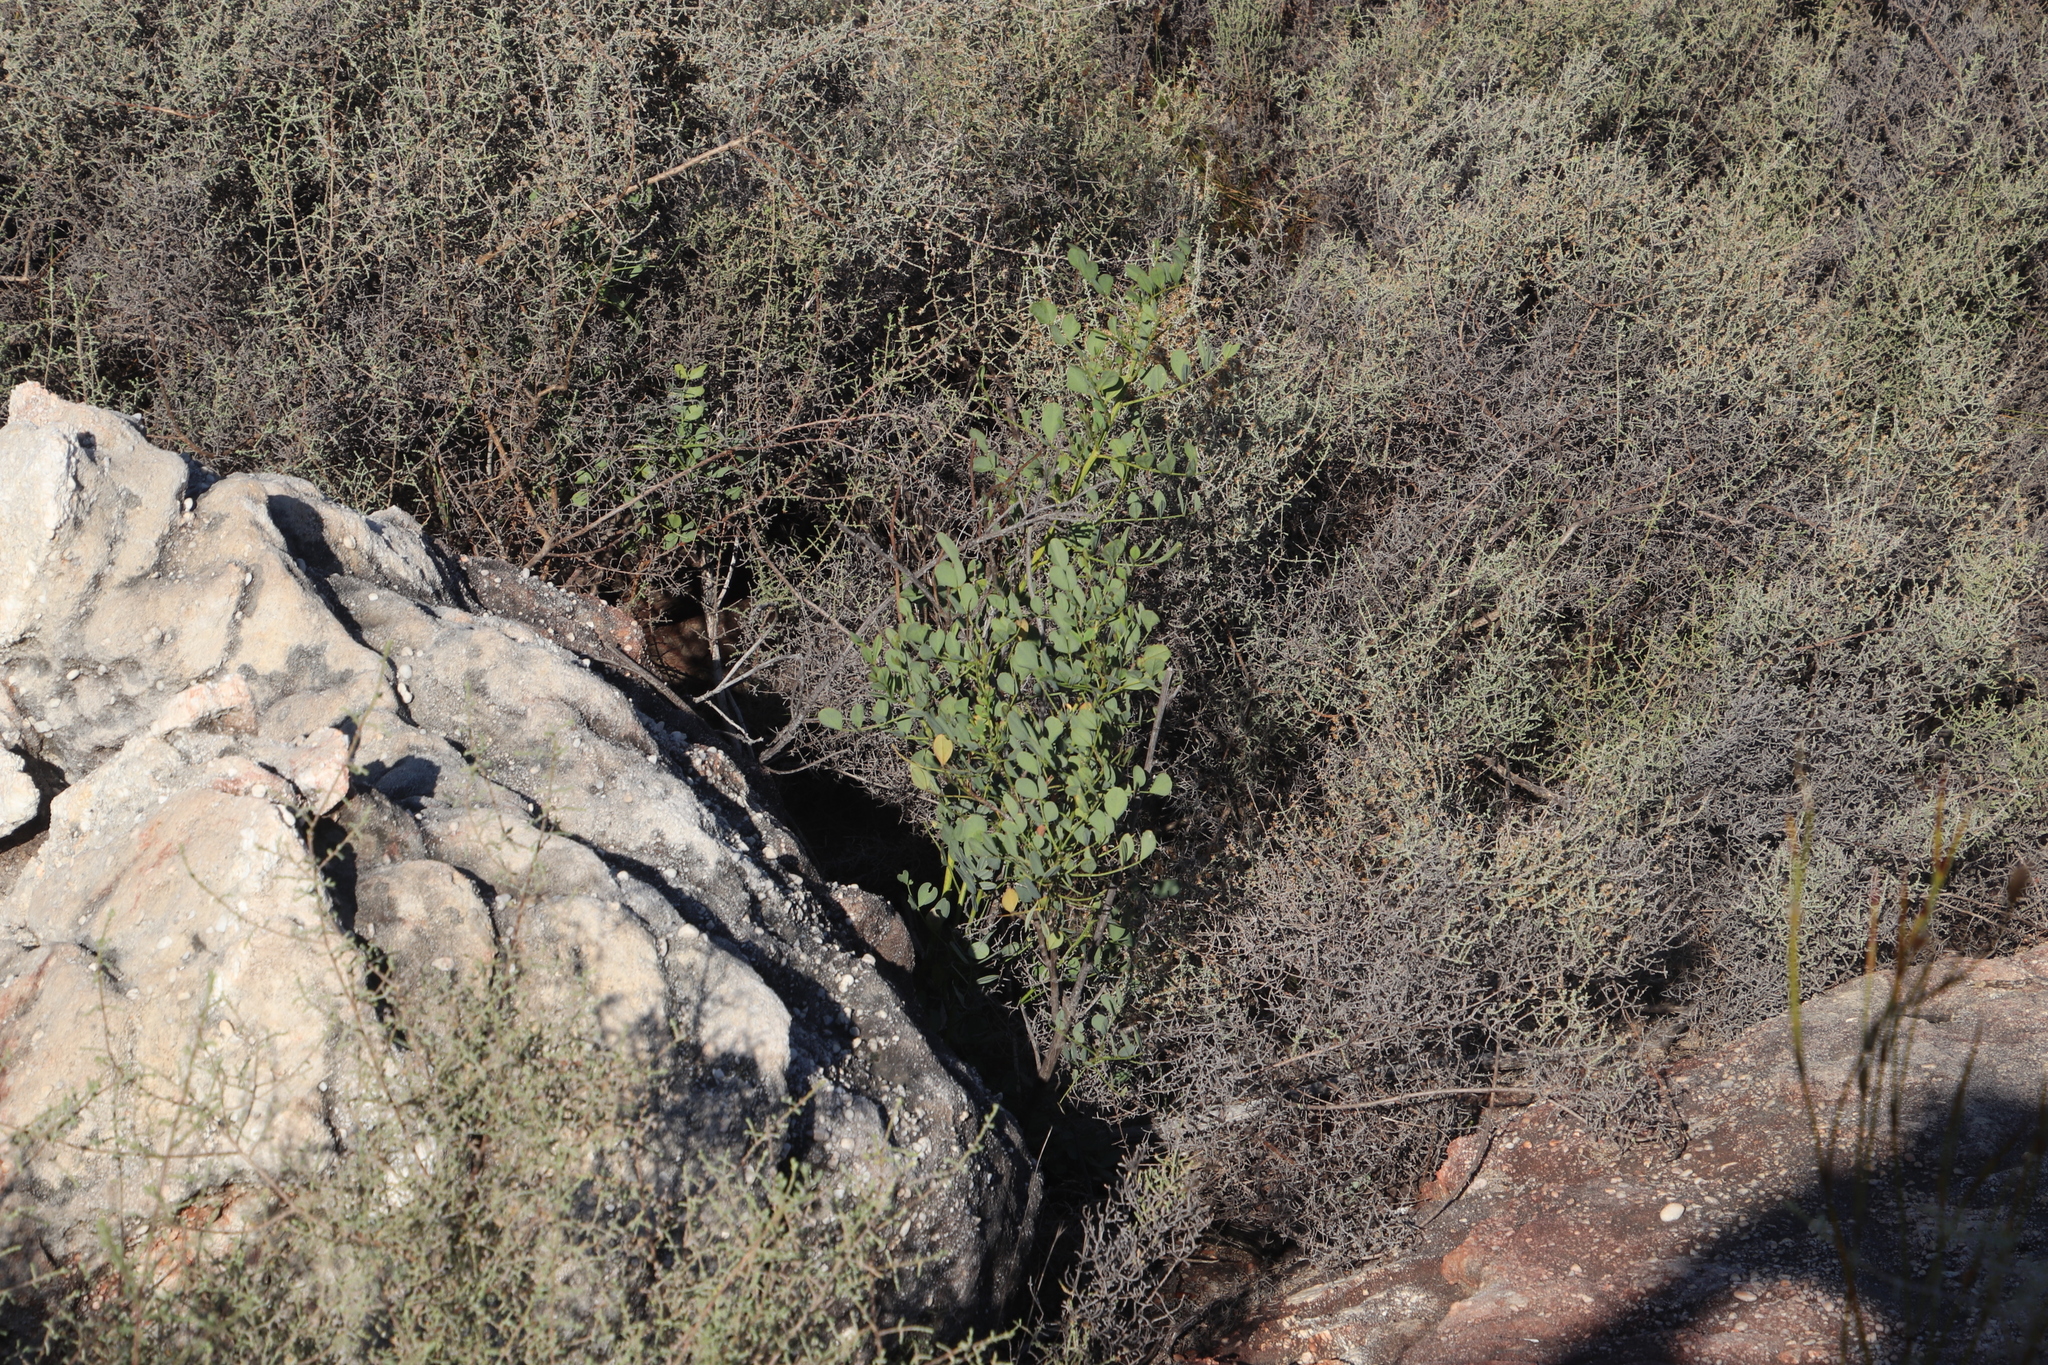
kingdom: Plantae
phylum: Tracheophyta
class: Magnoliopsida
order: Fabales
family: Fabaceae
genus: Indigofera
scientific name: Indigofera frutescens
